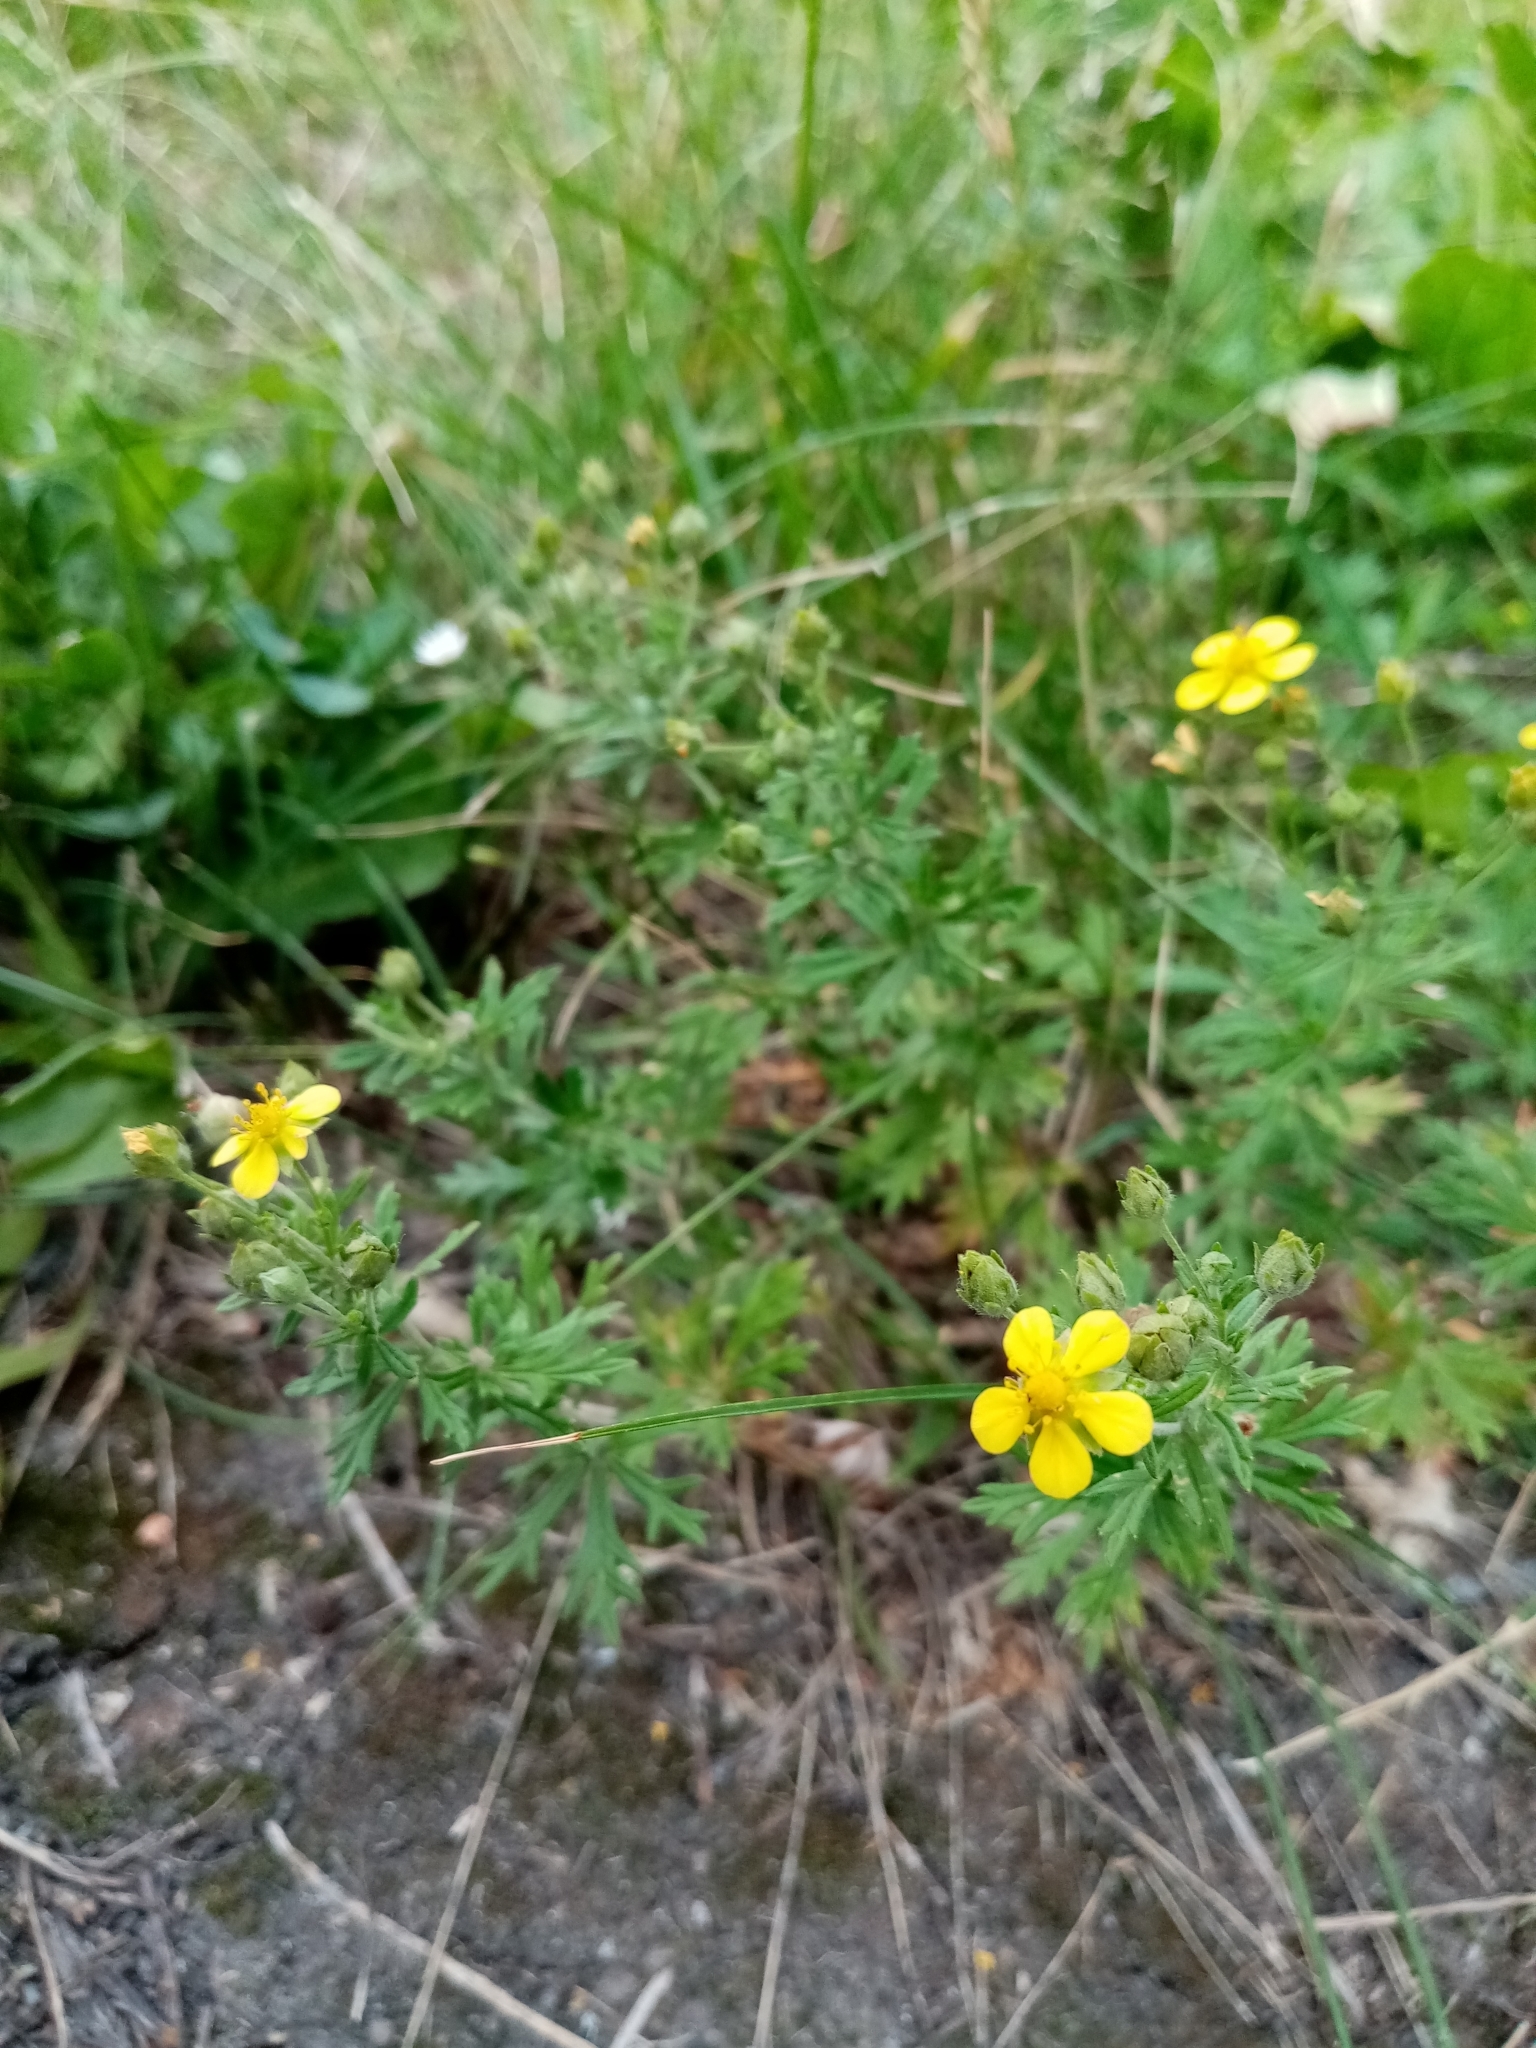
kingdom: Plantae
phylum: Tracheophyta
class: Magnoliopsida
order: Rosales
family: Rosaceae
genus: Potentilla
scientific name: Potentilla argentea
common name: Hoary cinquefoil
